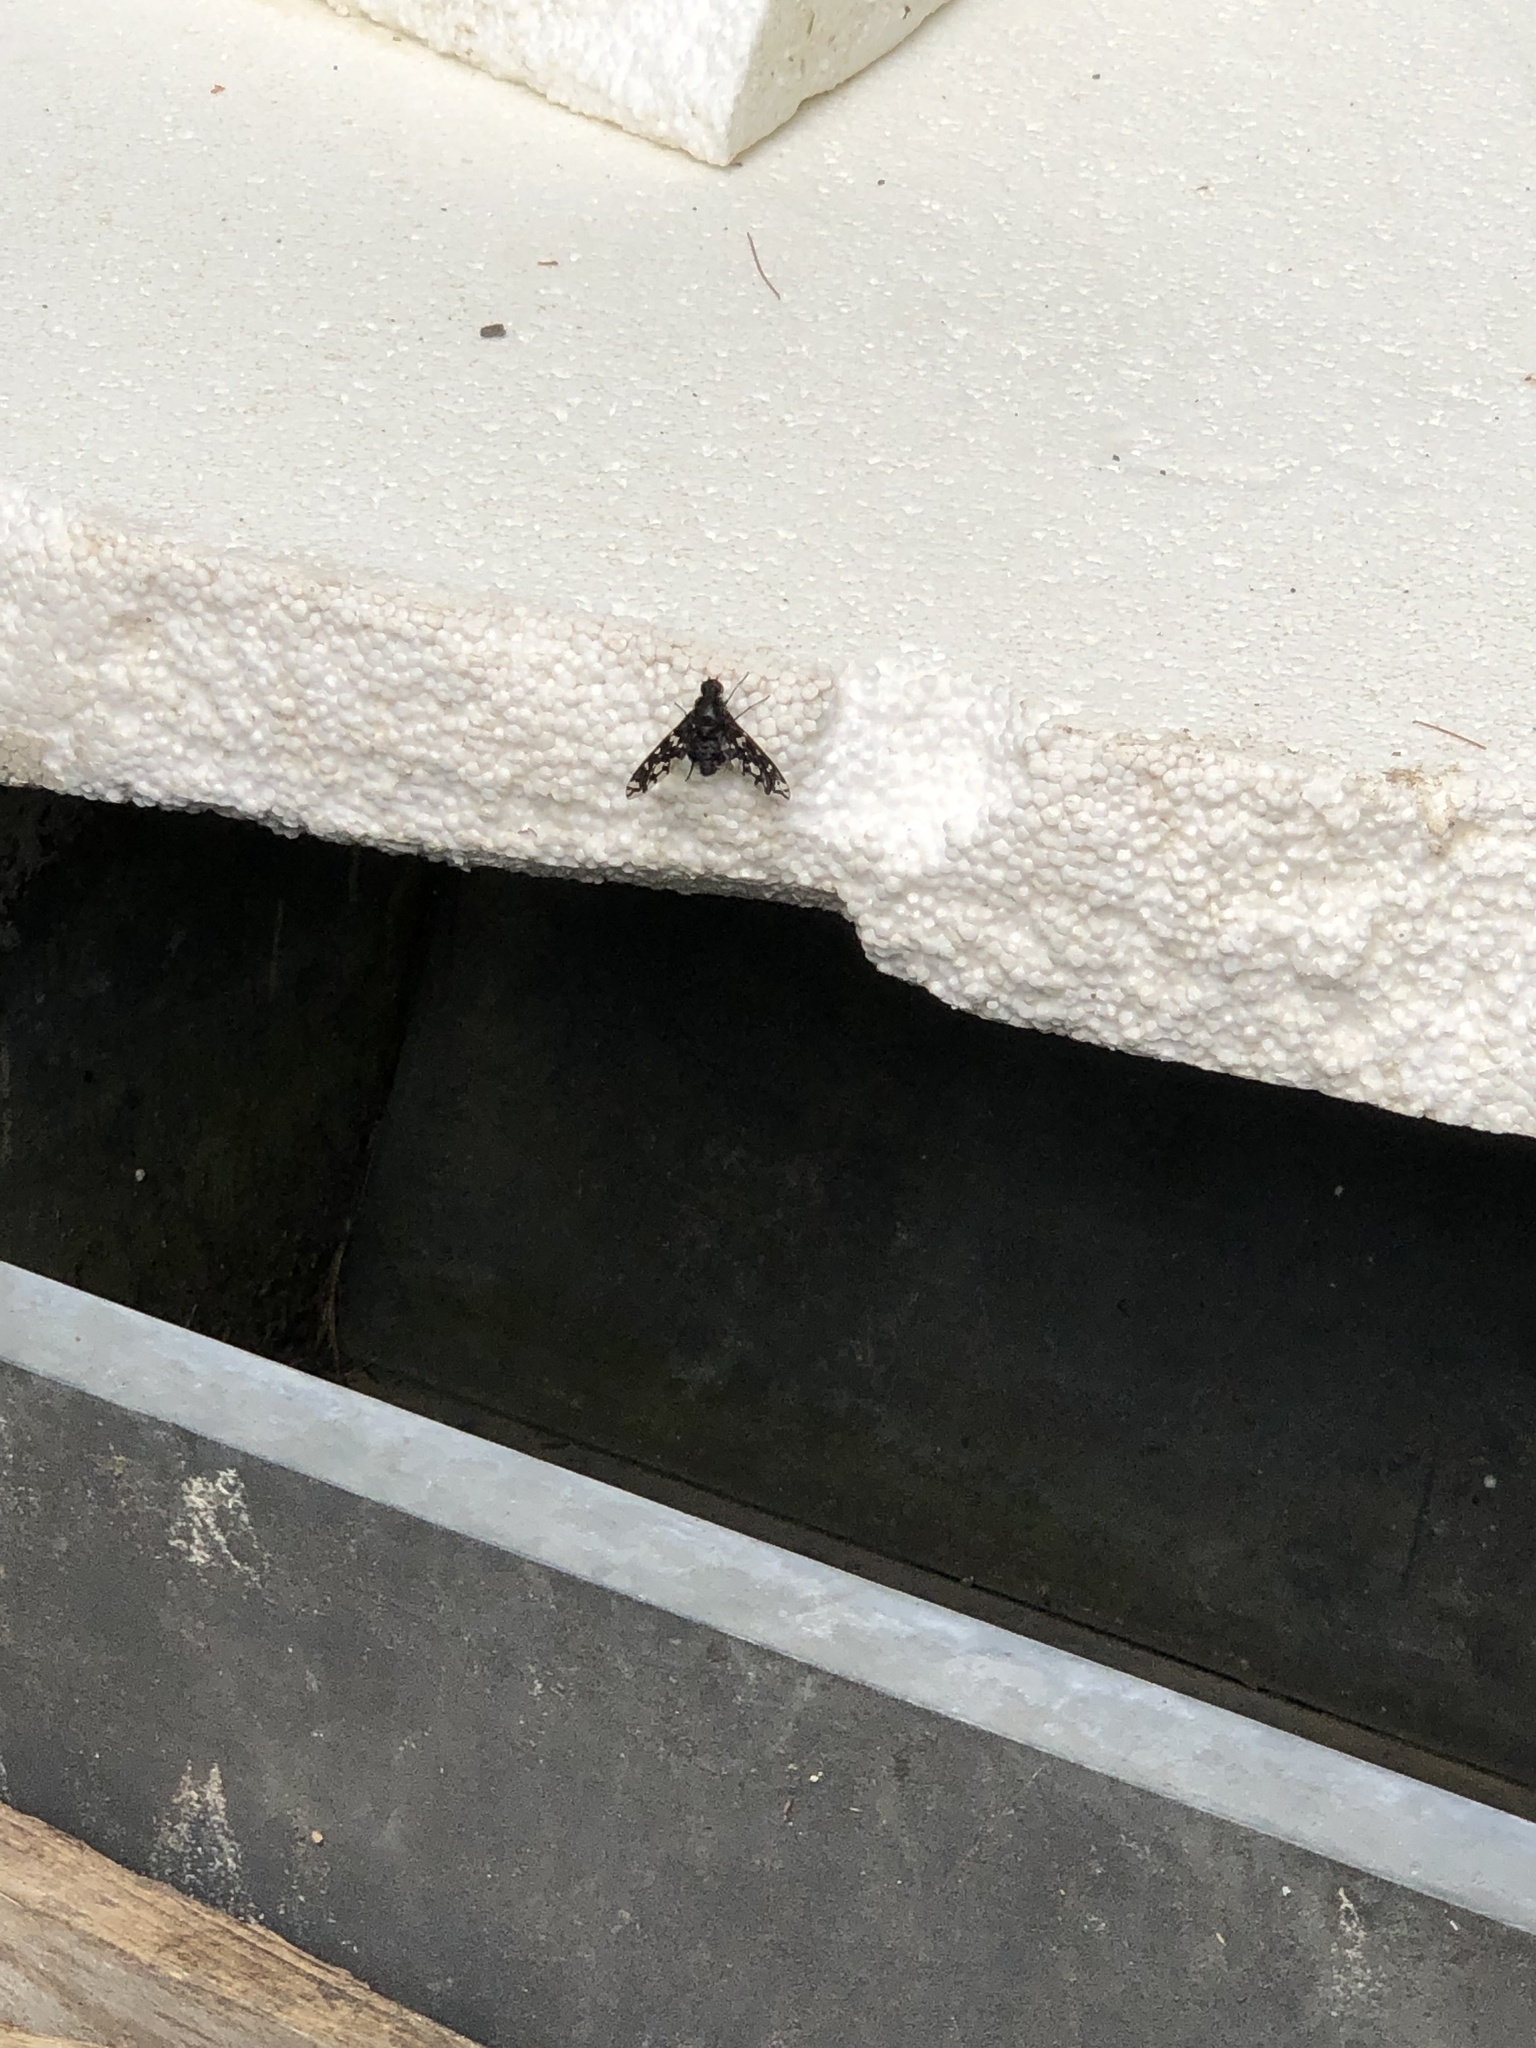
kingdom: Animalia
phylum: Arthropoda
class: Insecta
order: Diptera
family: Bombyliidae
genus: Xenox
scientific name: Xenox tigrinus
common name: Tiger bee fly
